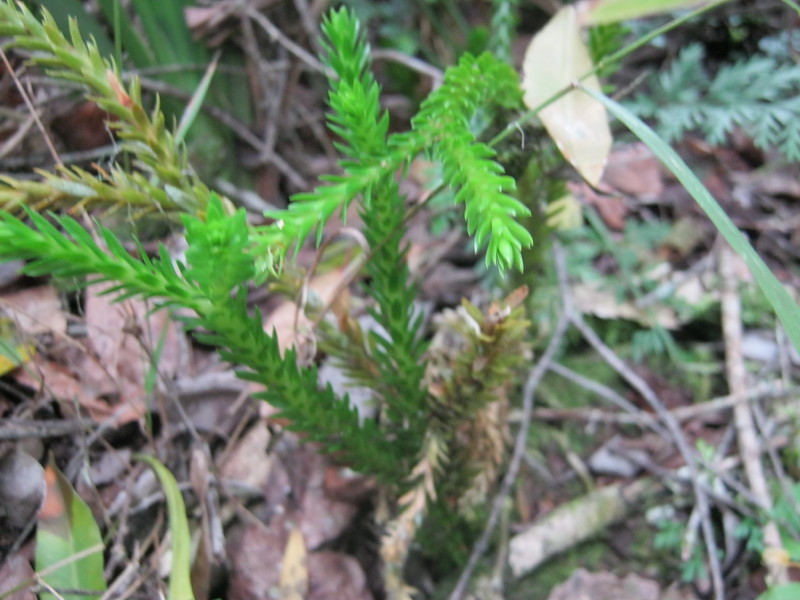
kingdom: Plantae
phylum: Tracheophyta
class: Lycopodiopsida
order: Lycopodiales
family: Lycopodiaceae
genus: Phlegmariurus
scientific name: Phlegmariurus gnidioides
